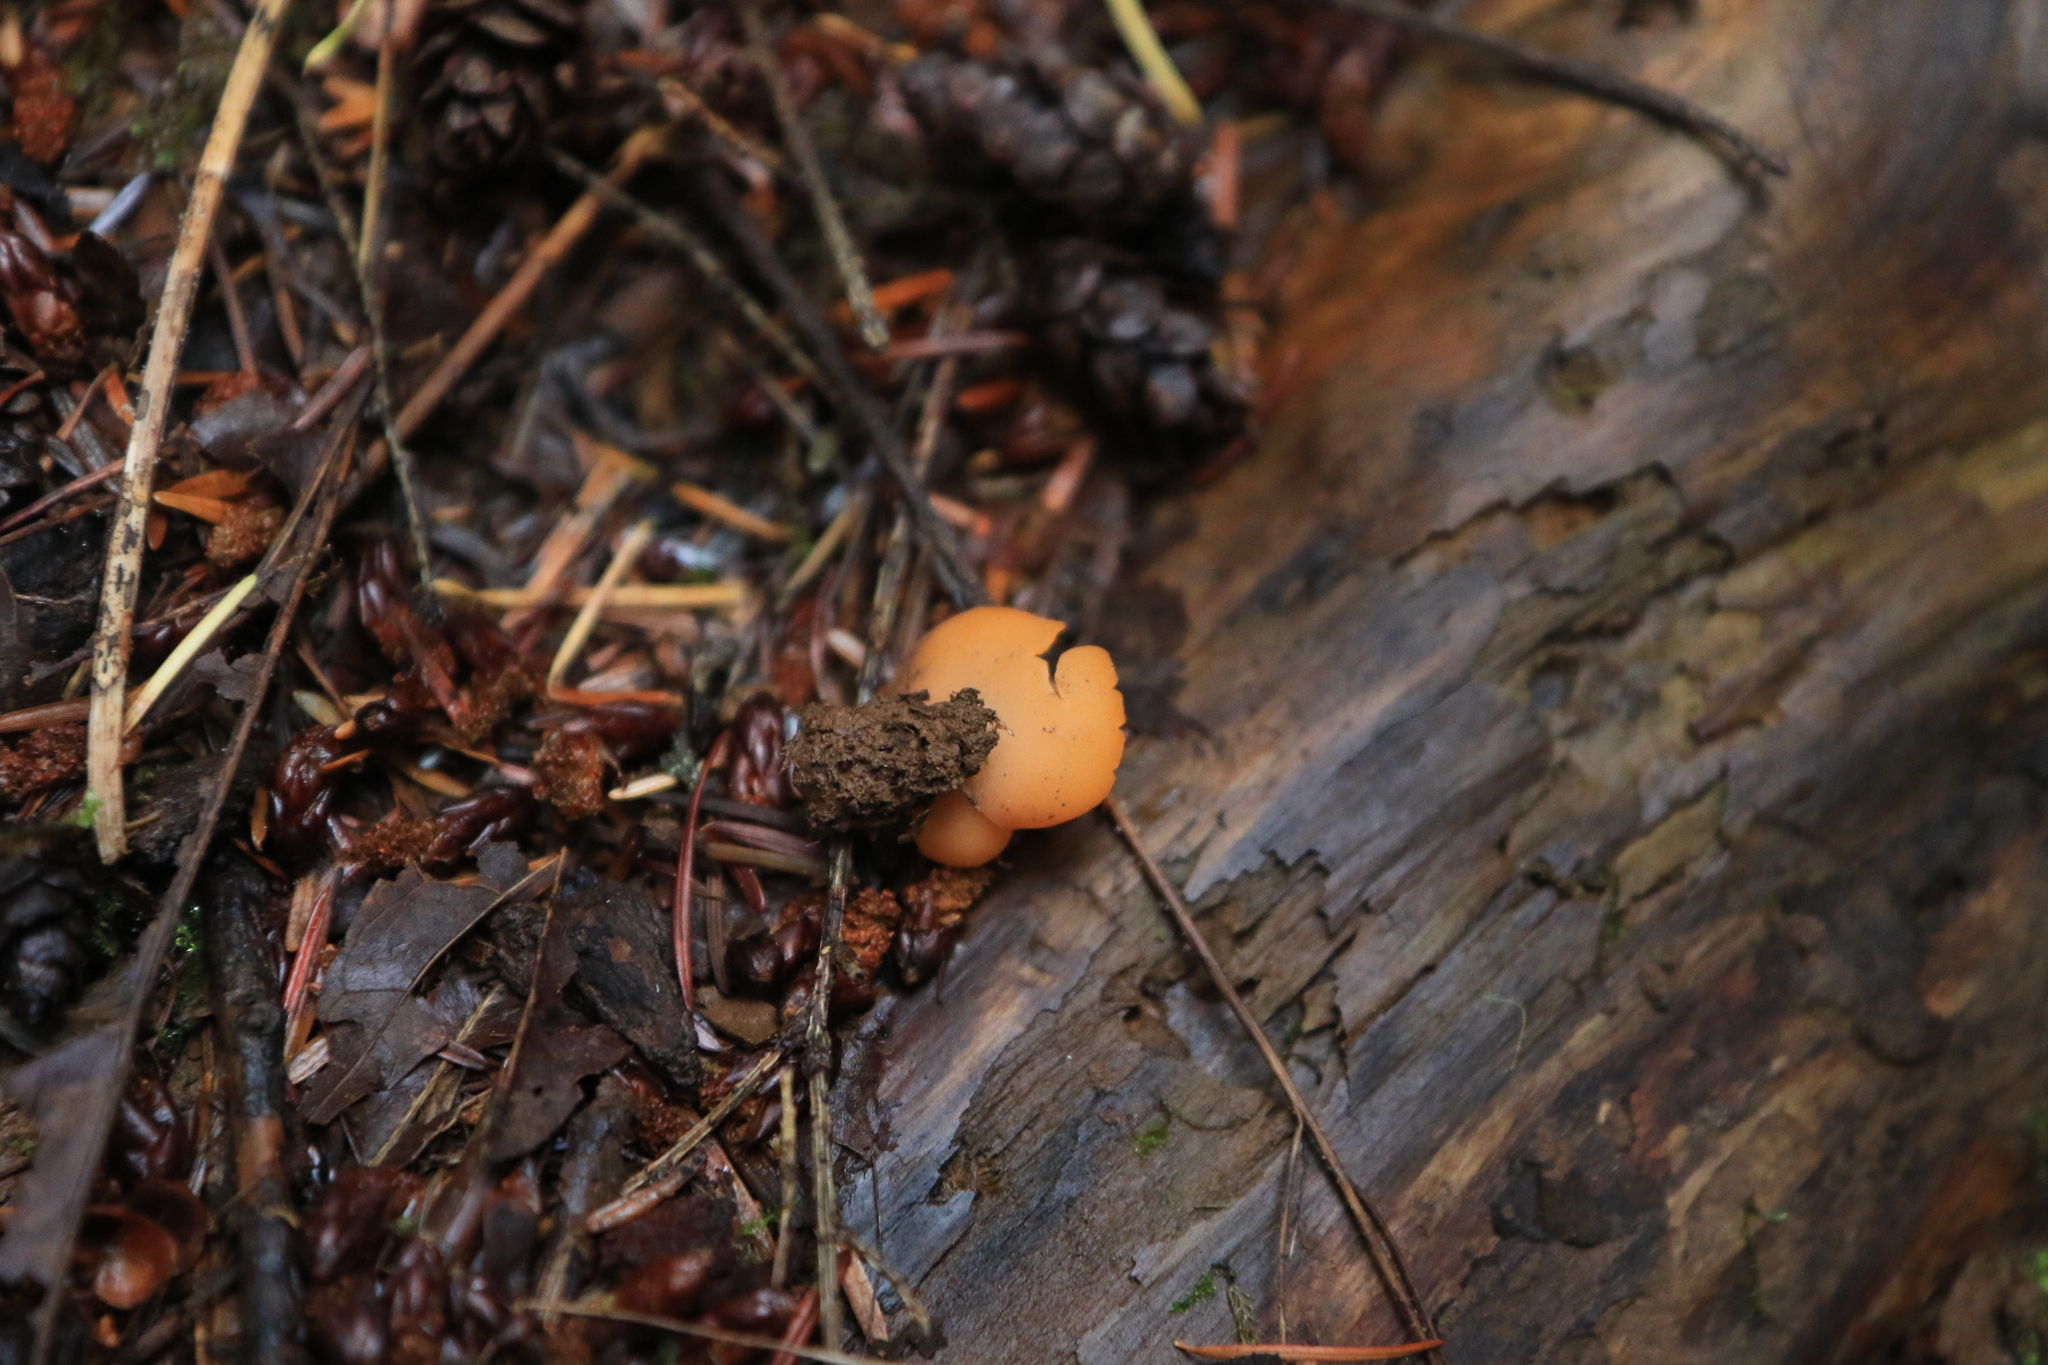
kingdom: Fungi
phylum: Ascomycota
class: Pezizomycetes
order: Pezizales
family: Pyronemataceae
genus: Aleuria
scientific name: Aleuria aurantia
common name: Orange peel fungus
